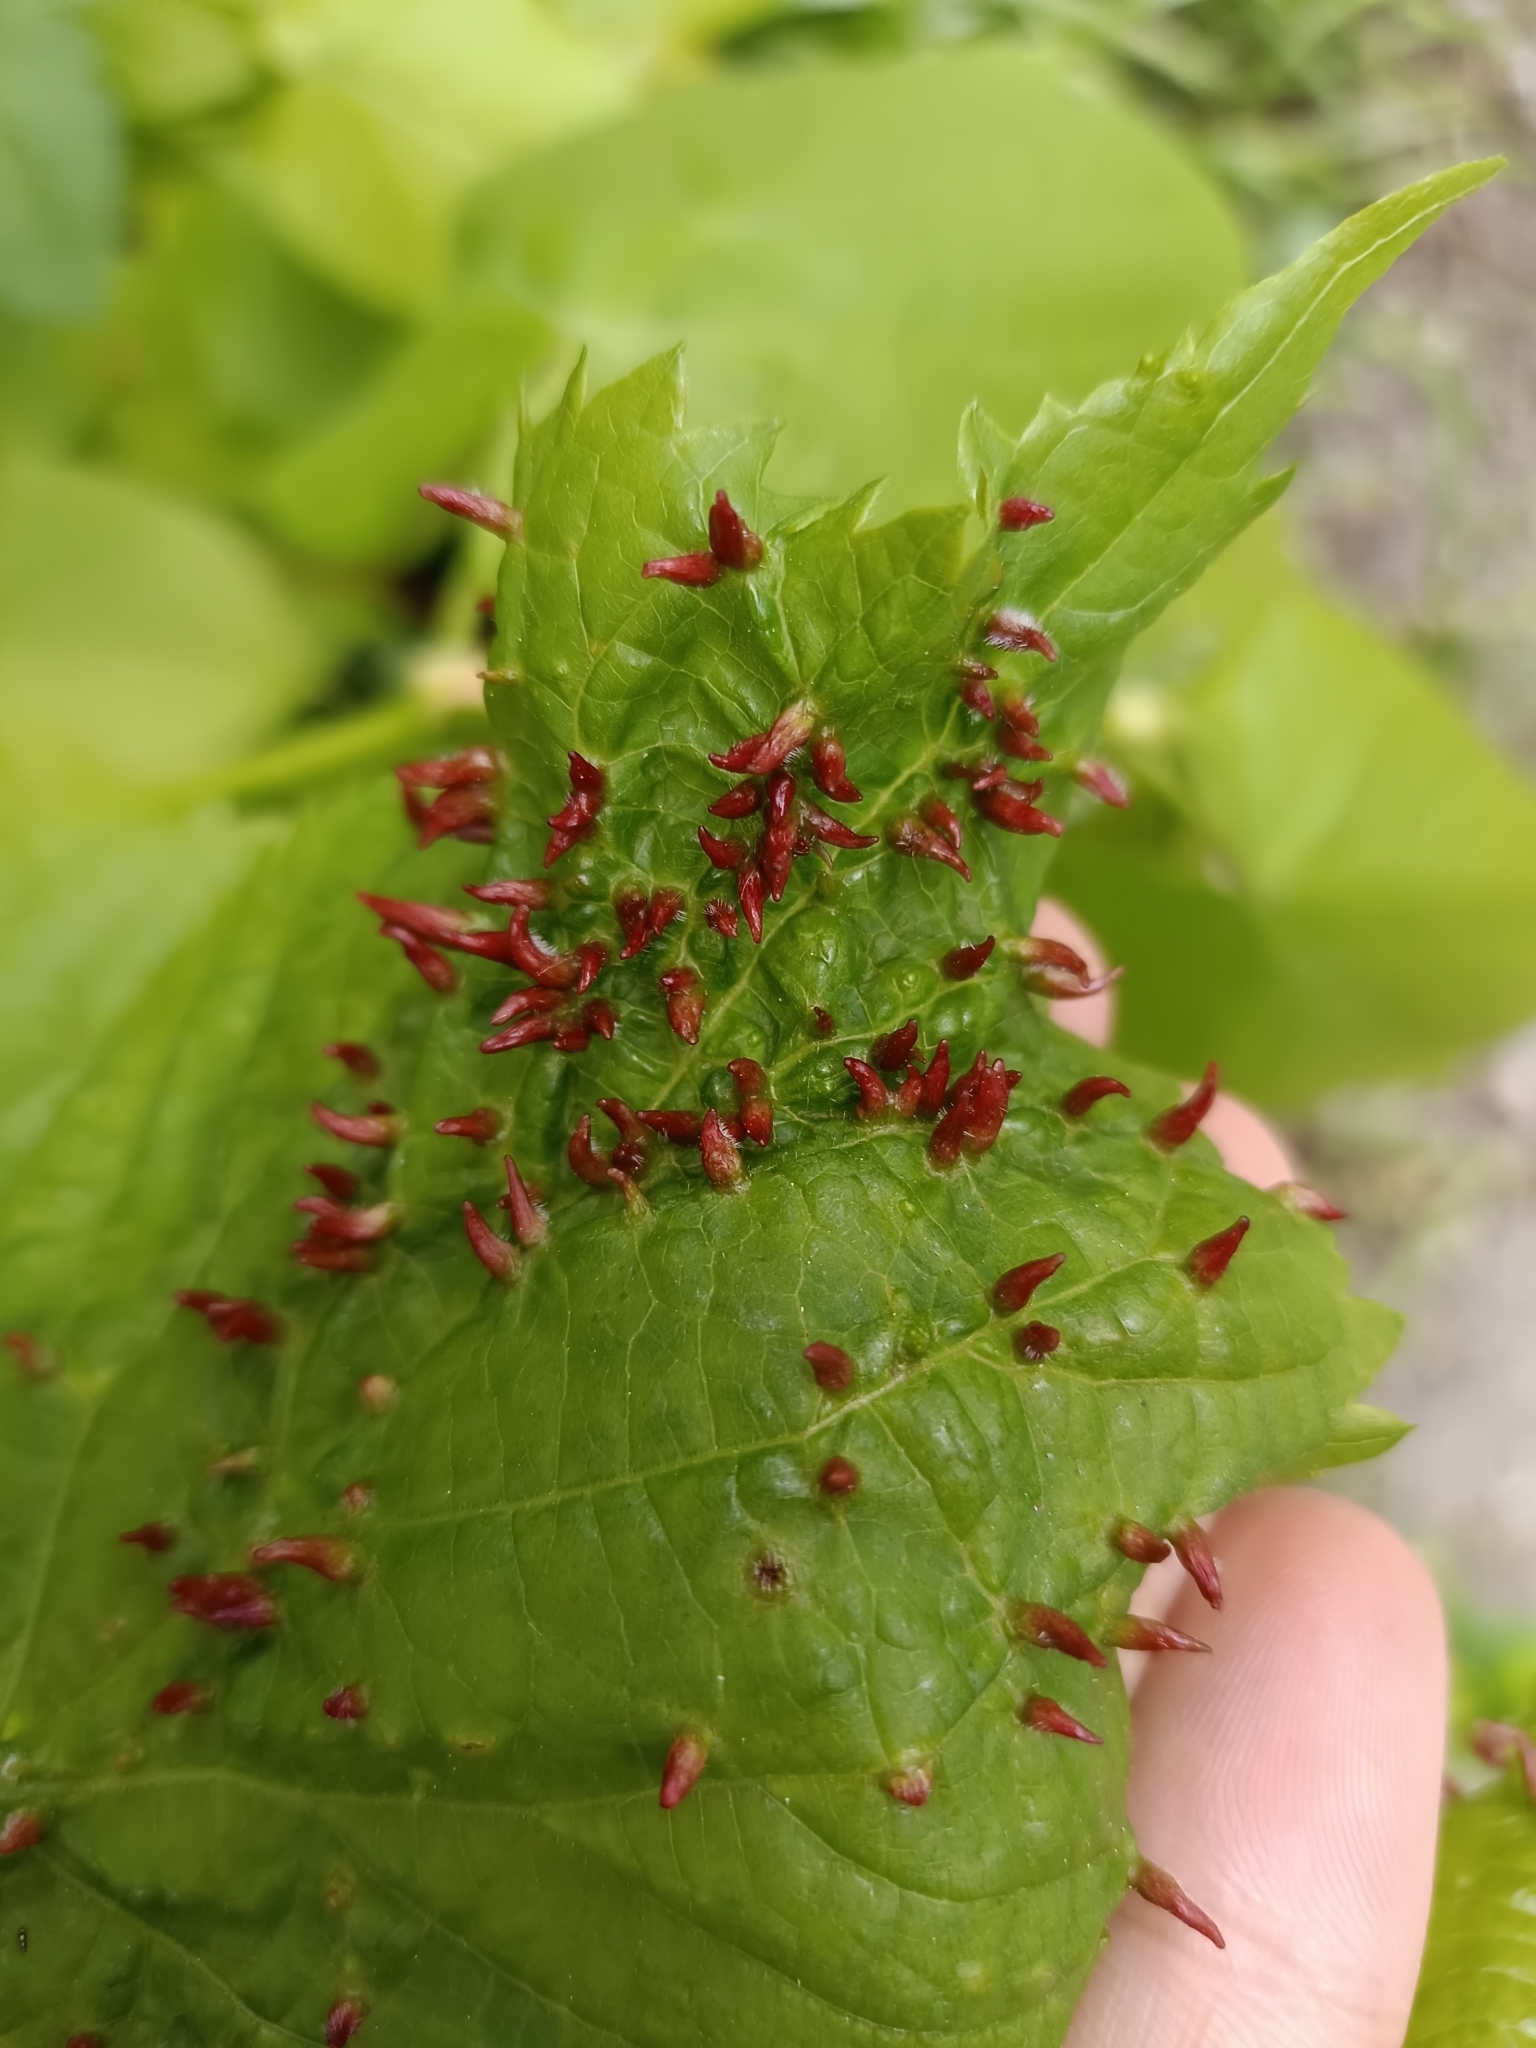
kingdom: Animalia
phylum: Arthropoda
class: Arachnida
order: Trombidiformes
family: Eriophyidae
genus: Eriophyes
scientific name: Eriophyes tiliae
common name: Red nail gall mite
